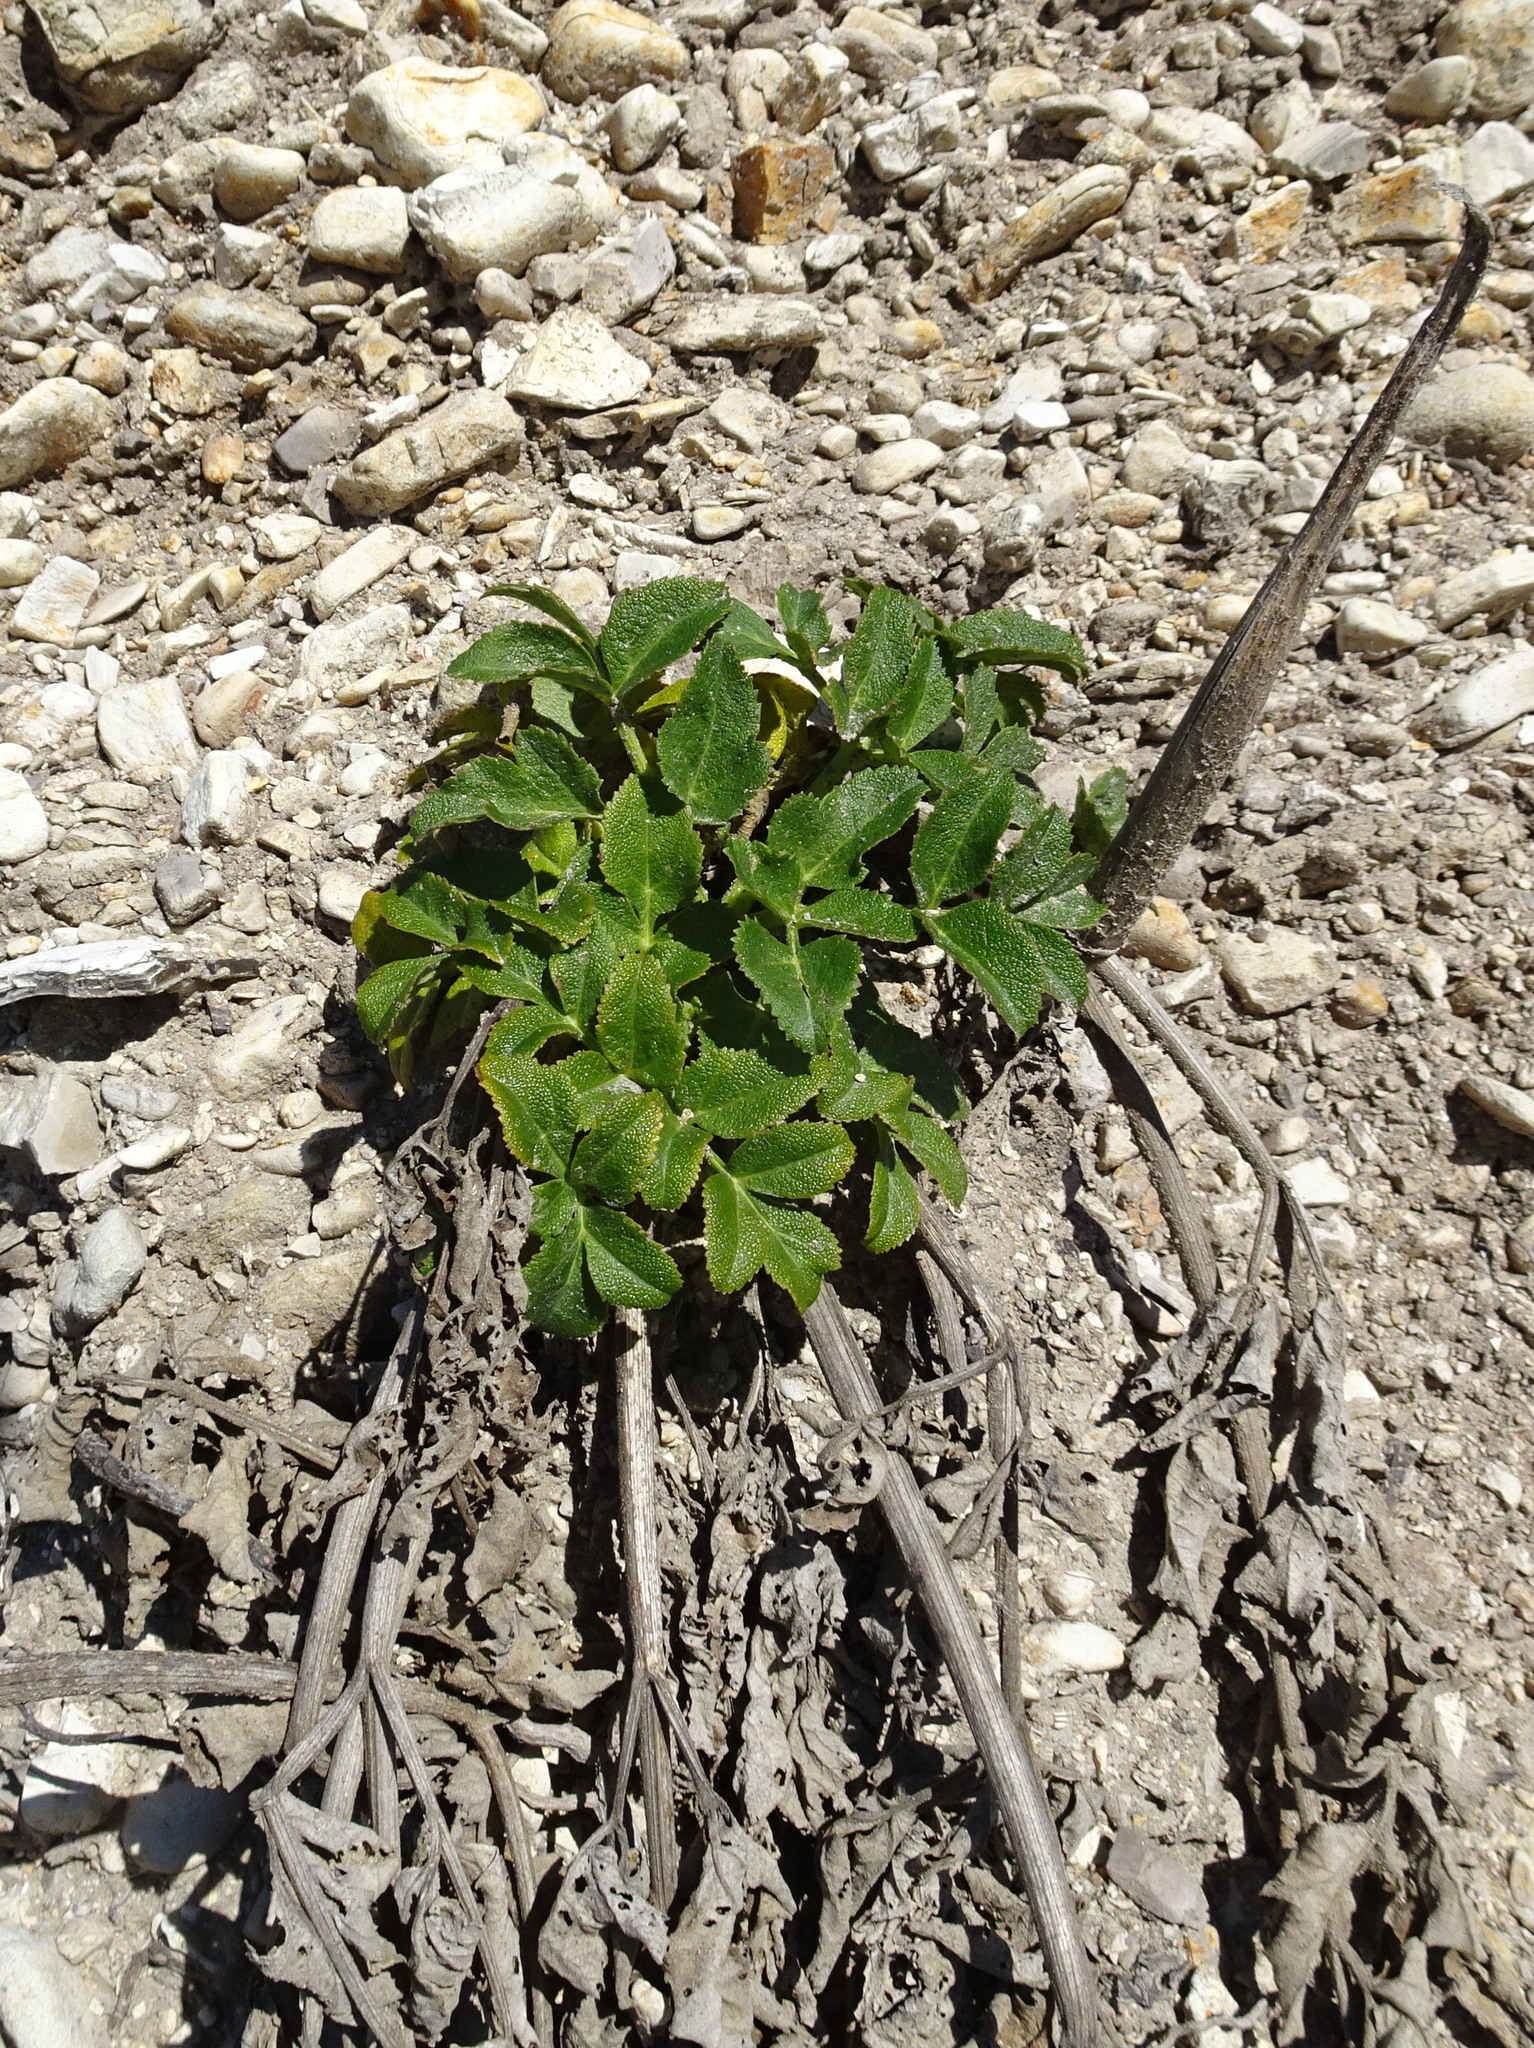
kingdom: Plantae
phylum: Tracheophyta
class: Magnoliopsida
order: Apiales
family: Apiaceae
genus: Angelica
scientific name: Angelica hendersonii
